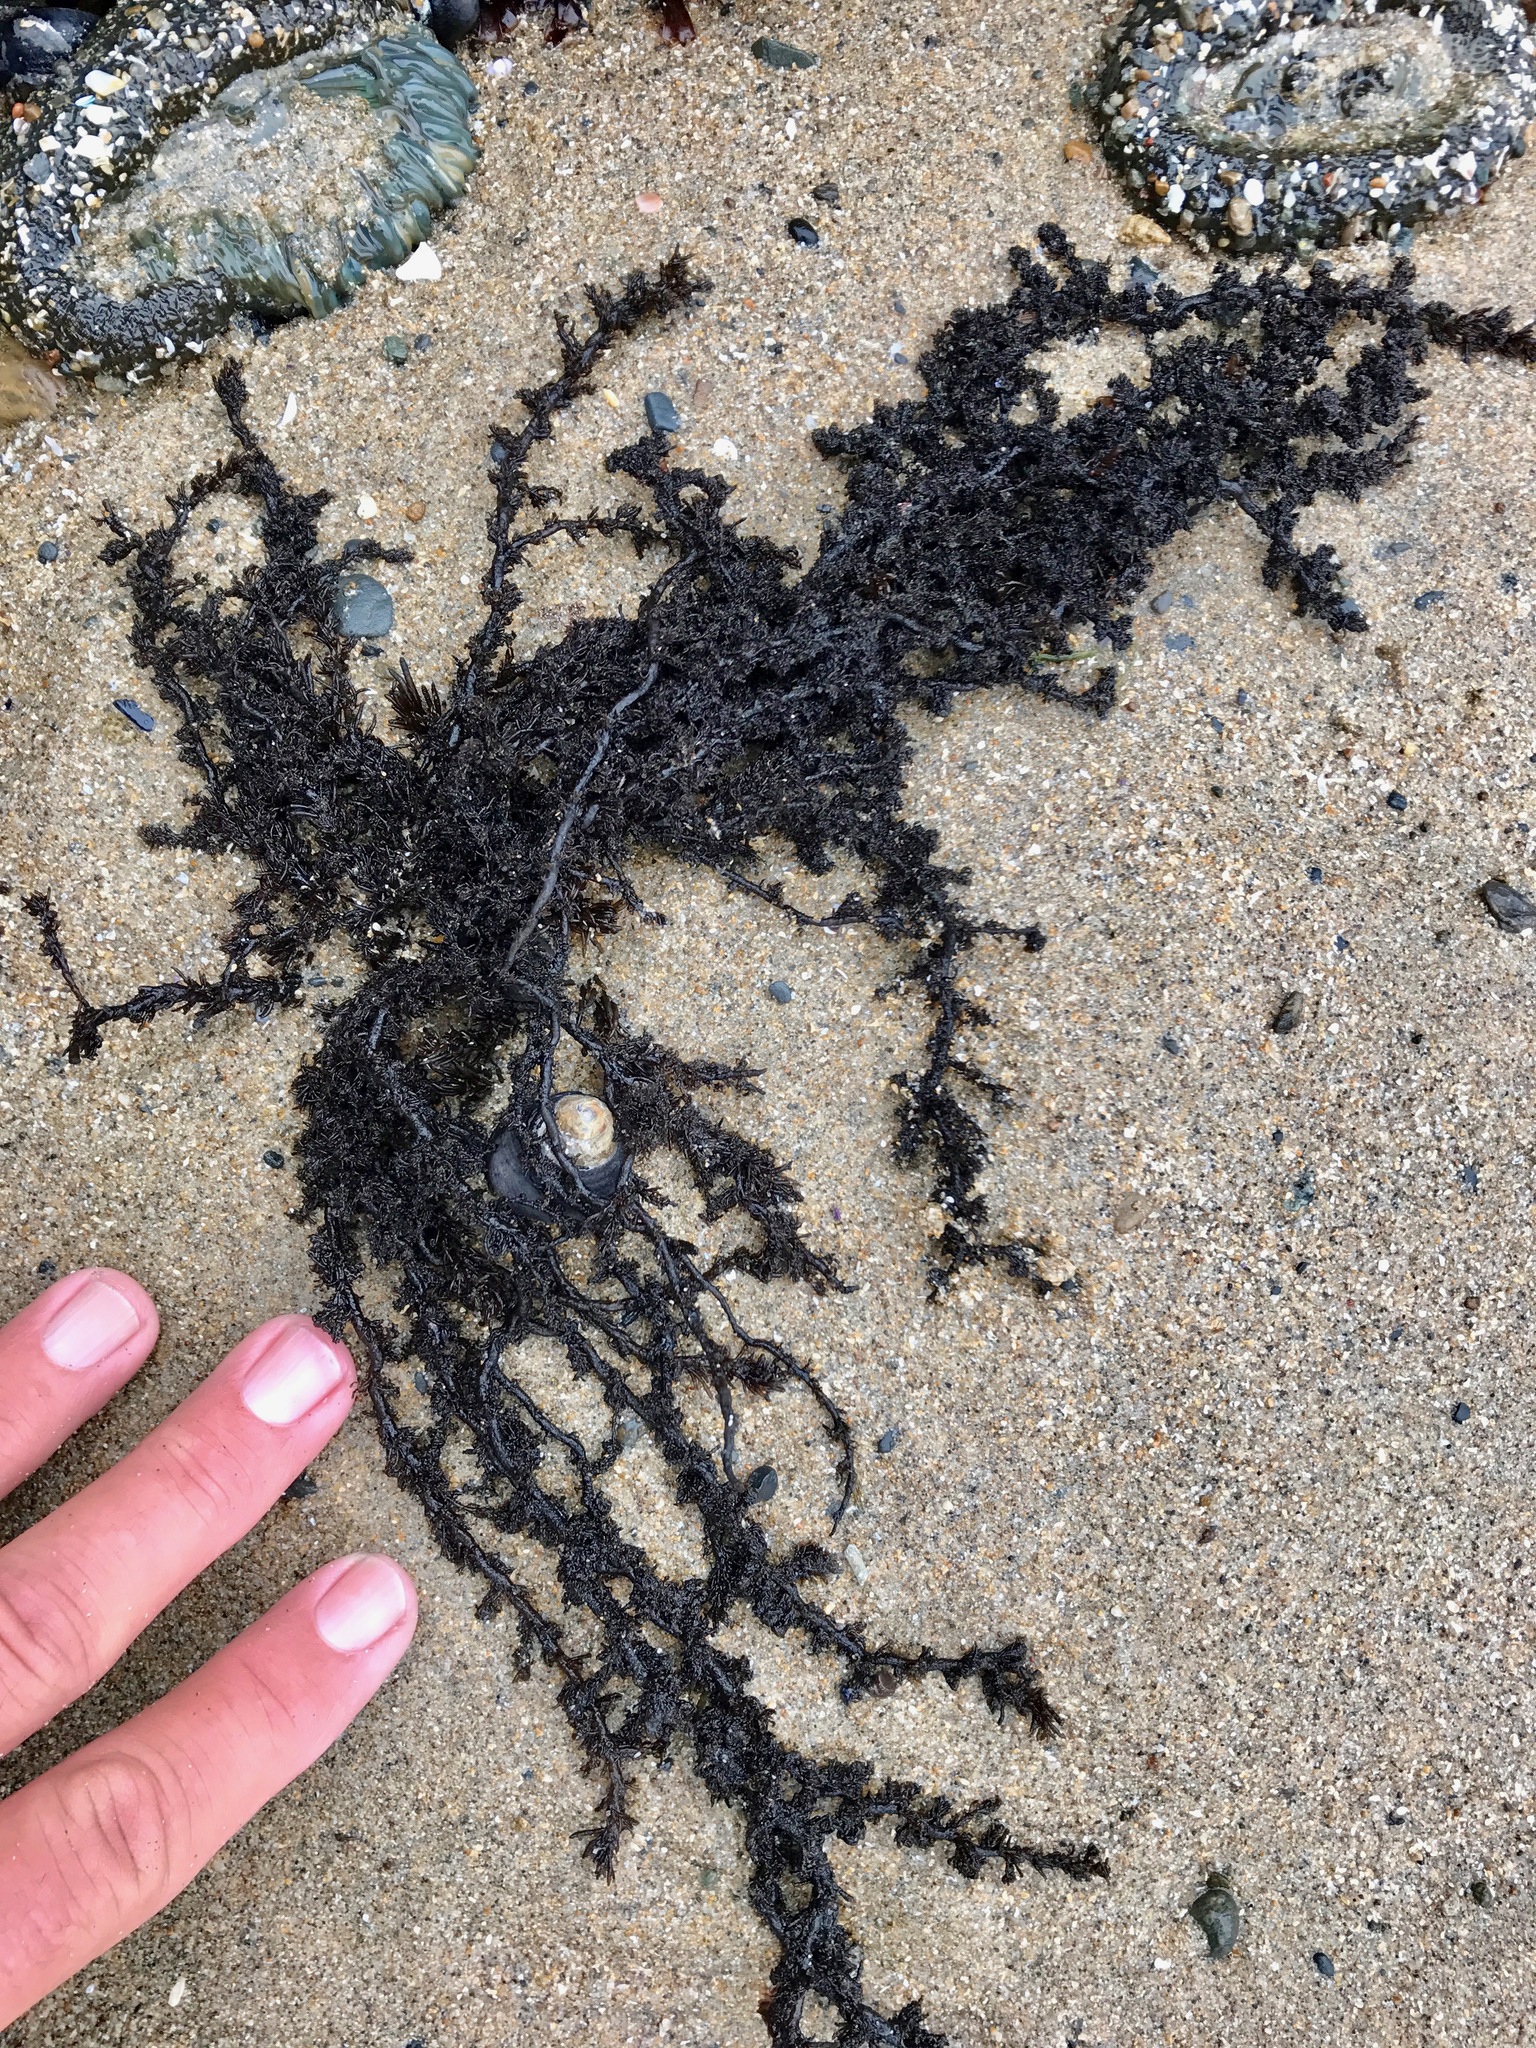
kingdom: Plantae
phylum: Rhodophyta
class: Florideophyceae
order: Ceramiales
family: Rhodomelaceae
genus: Neorhodomela
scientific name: Neorhodomela larix
